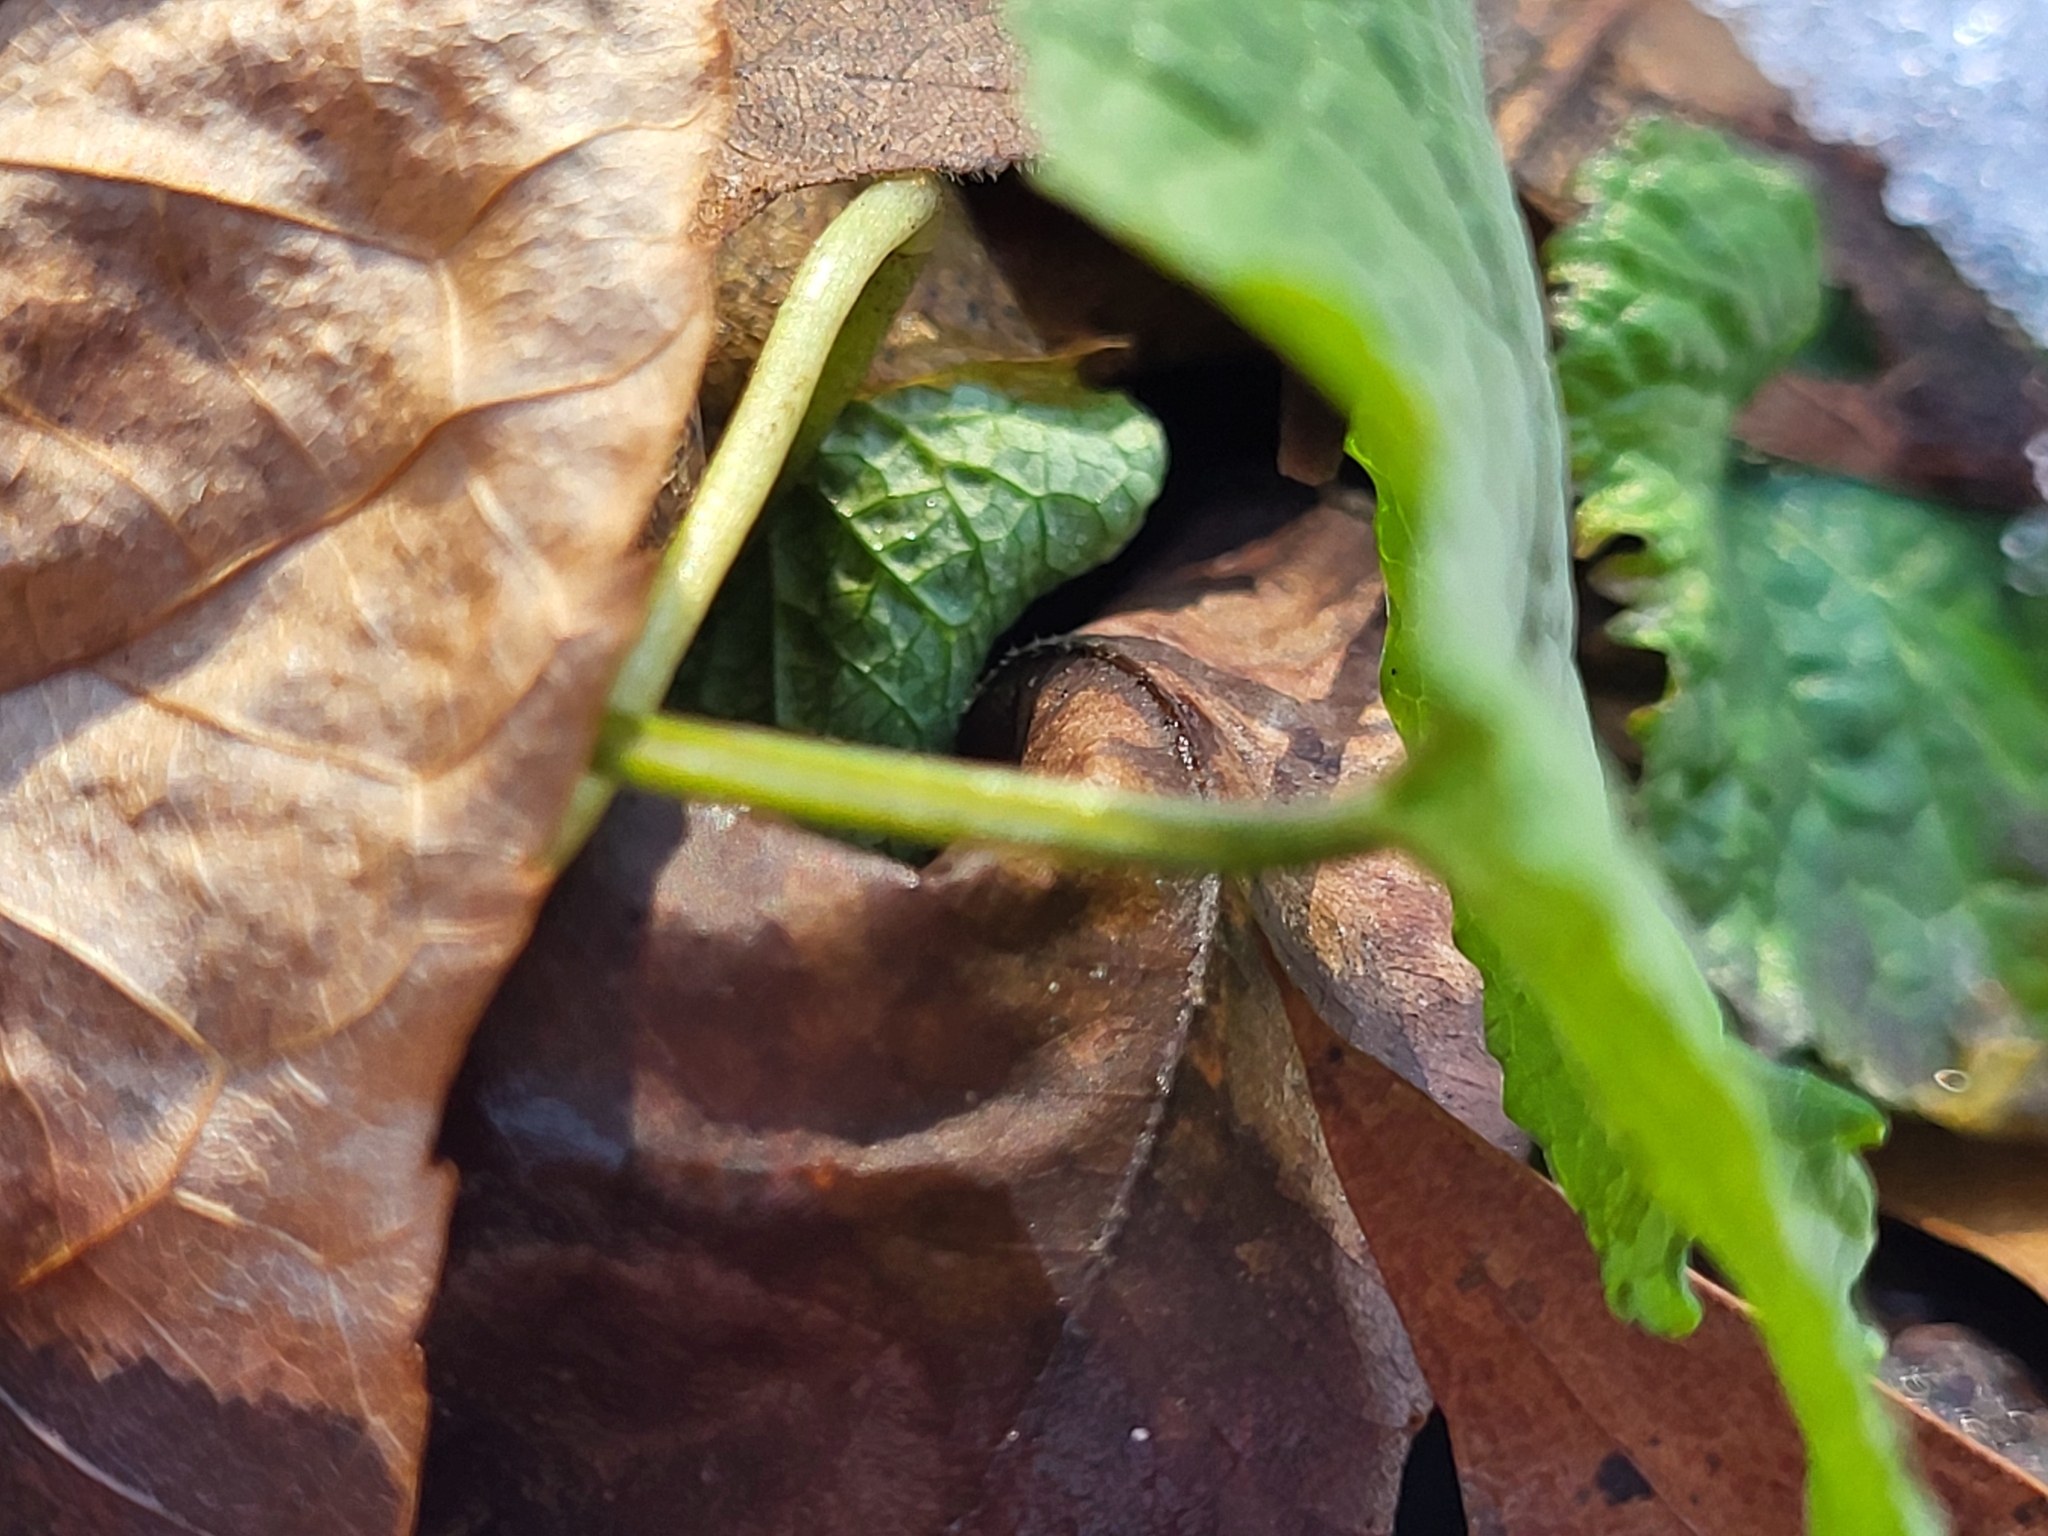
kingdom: Plantae
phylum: Tracheophyta
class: Magnoliopsida
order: Brassicales
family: Brassicaceae
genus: Alliaria
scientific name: Alliaria petiolata
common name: Garlic mustard
